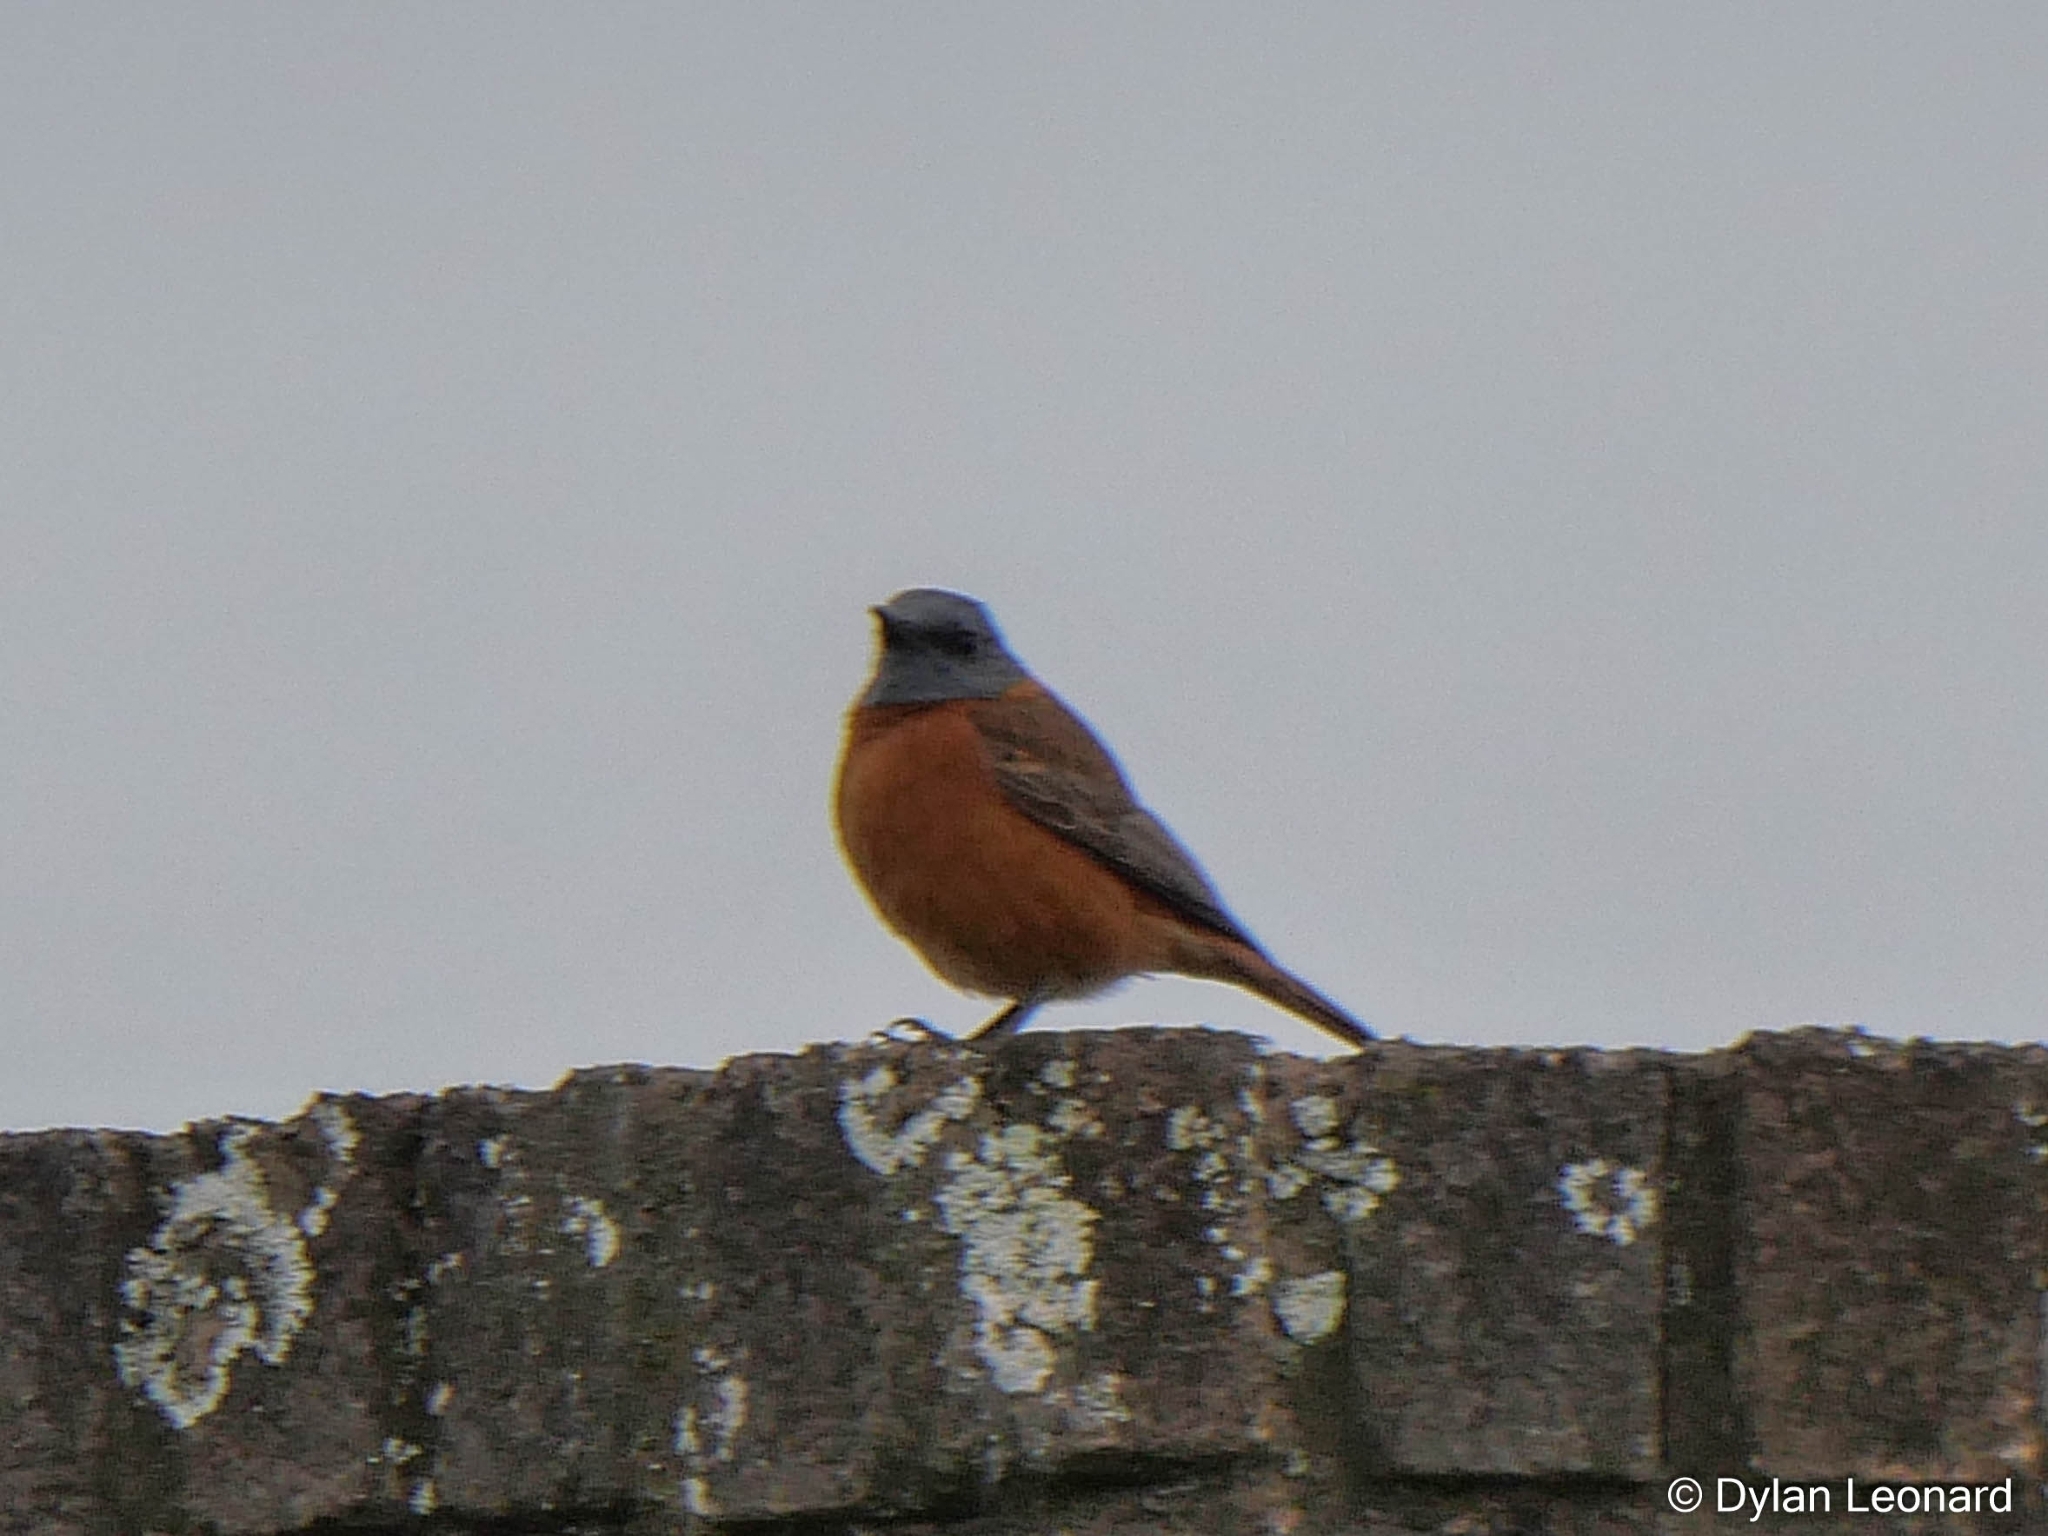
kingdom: Animalia
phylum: Chordata
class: Aves
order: Passeriformes
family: Muscicapidae
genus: Monticola
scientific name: Monticola rupestris
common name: Cape rock thrush
